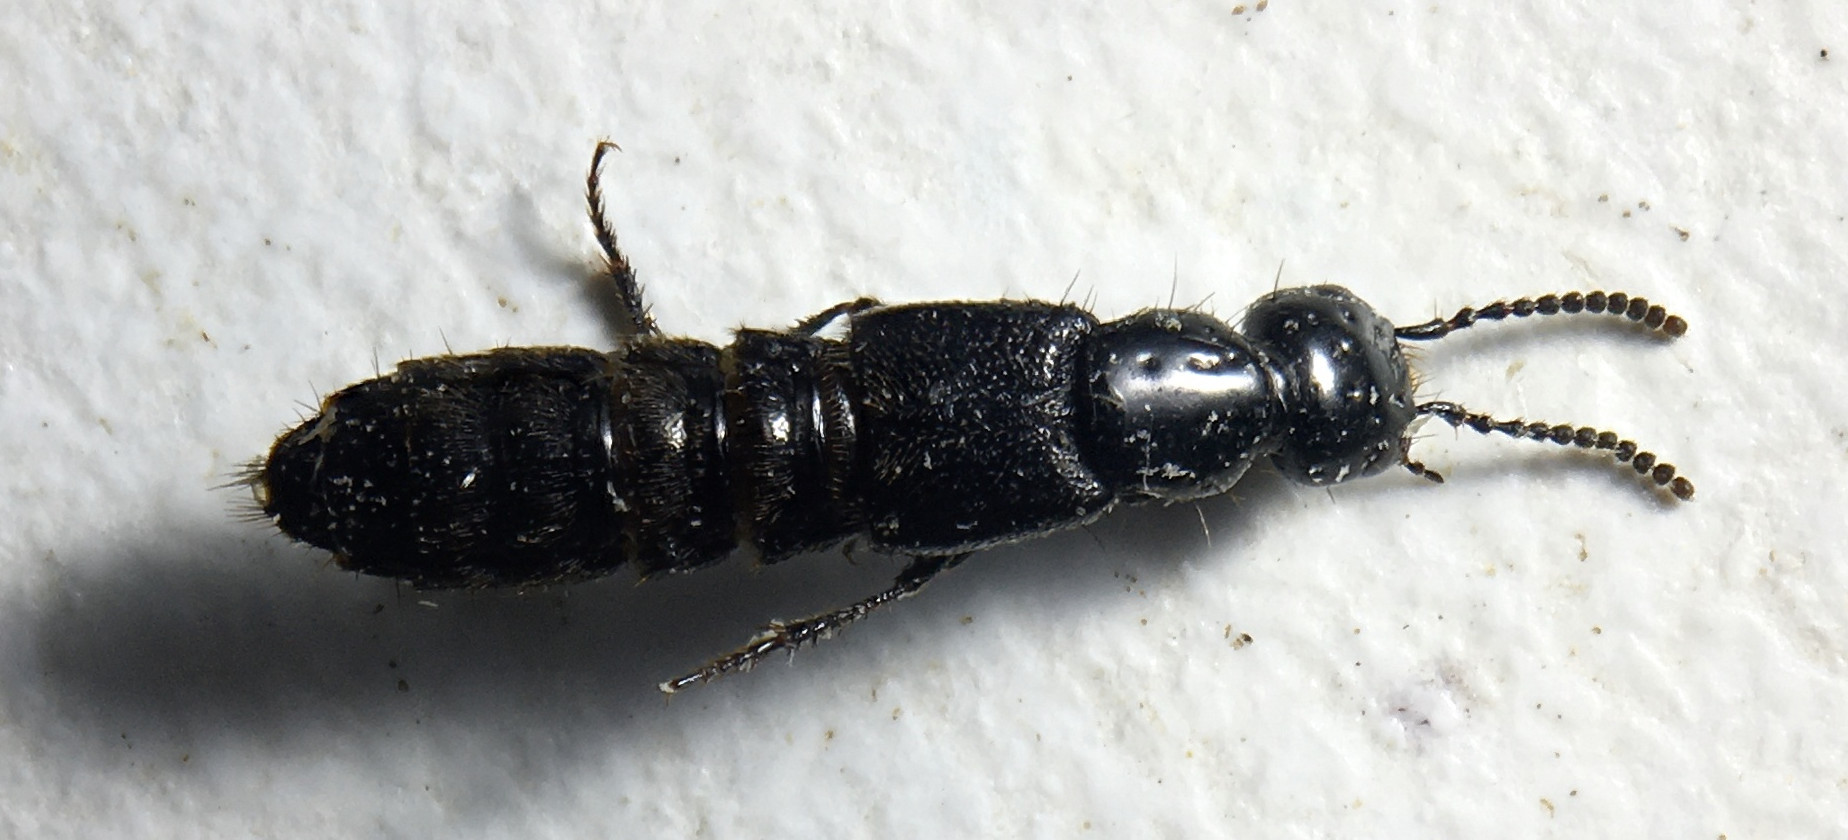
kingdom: Animalia
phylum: Arthropoda
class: Insecta
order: Coleoptera
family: Staphylinidae
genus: Philonthus
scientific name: Philonthus nudus
